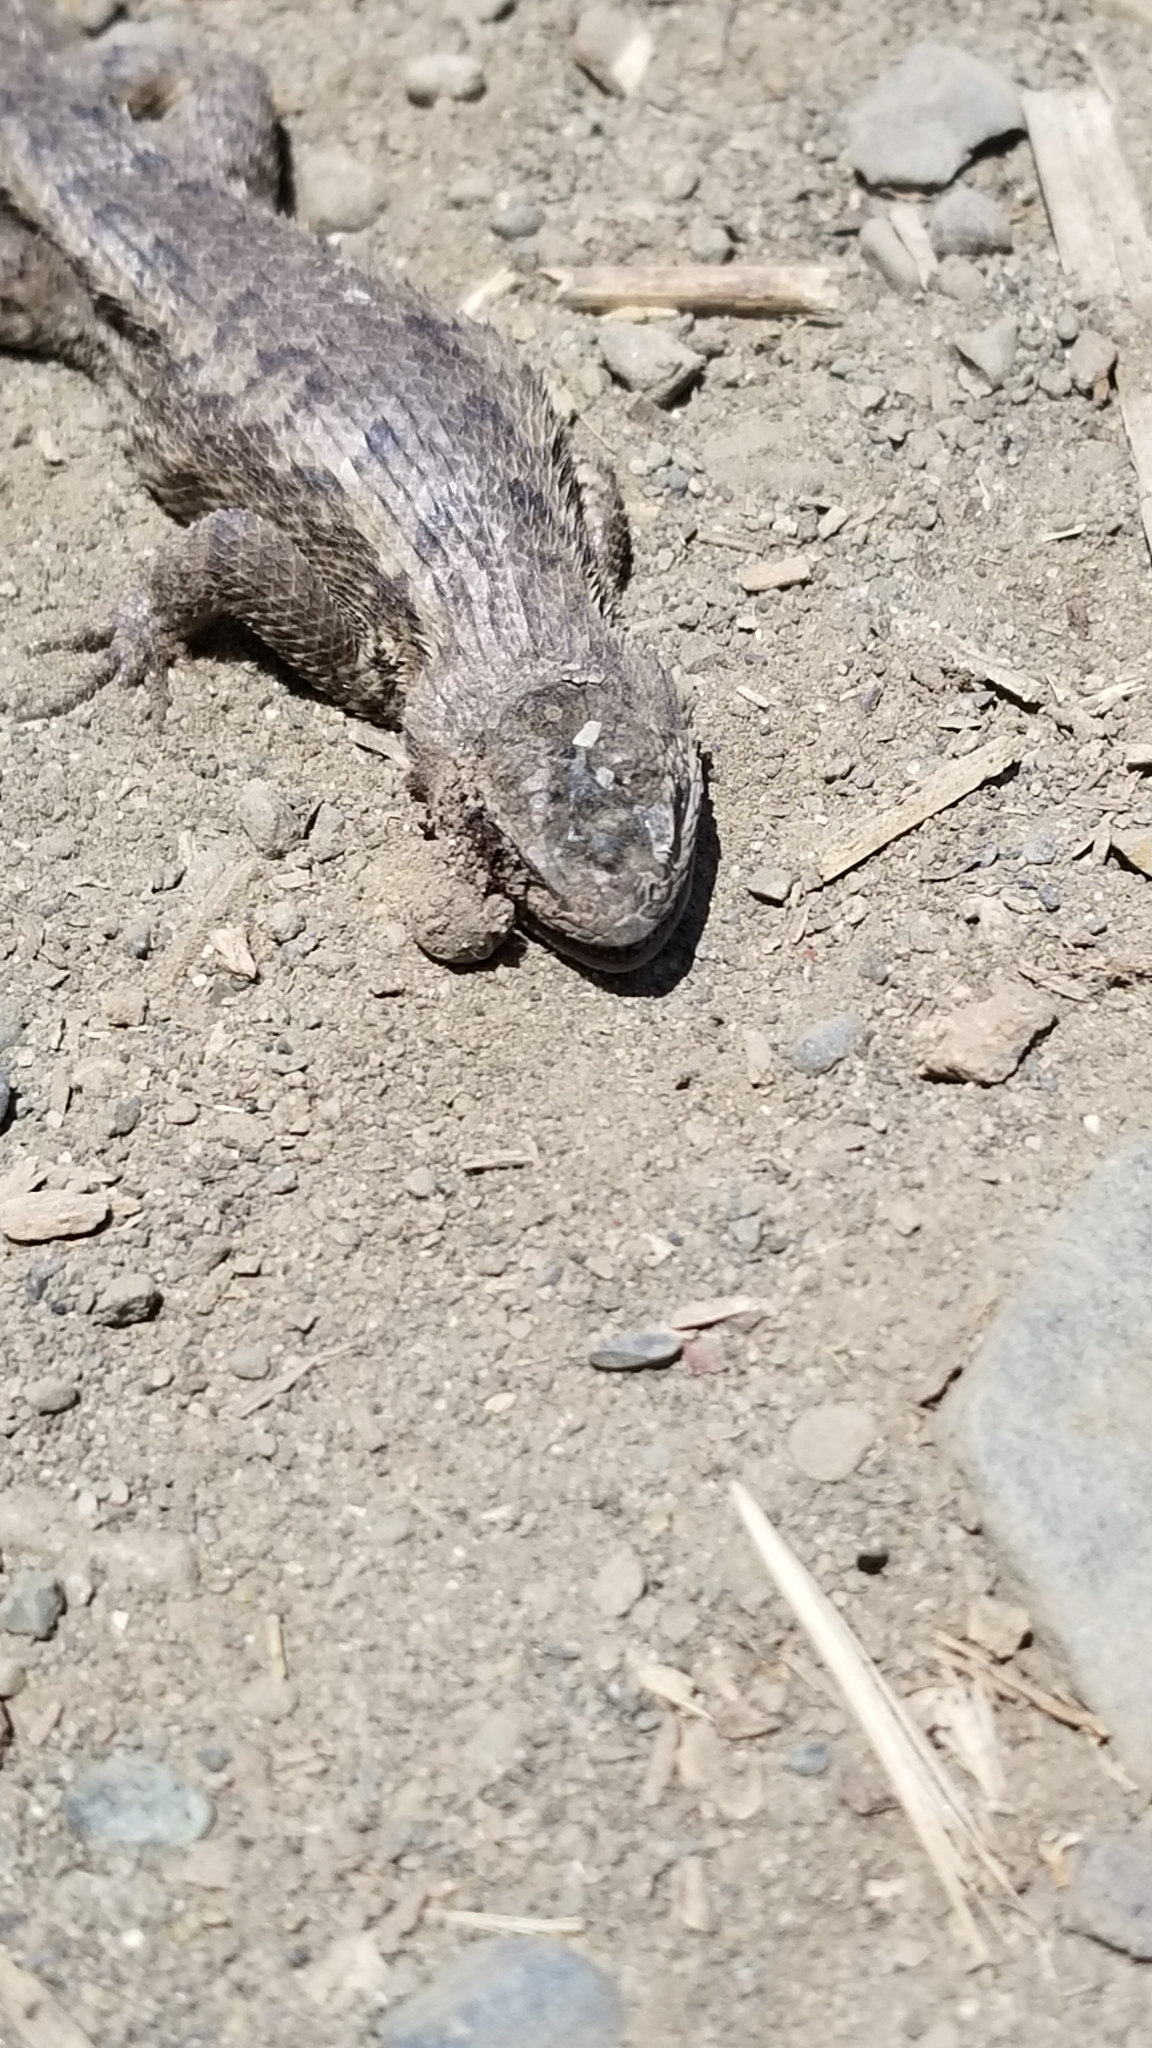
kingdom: Animalia
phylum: Chordata
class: Squamata
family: Phrynosomatidae
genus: Sceloporus
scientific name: Sceloporus occidentalis
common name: Western fence lizard
